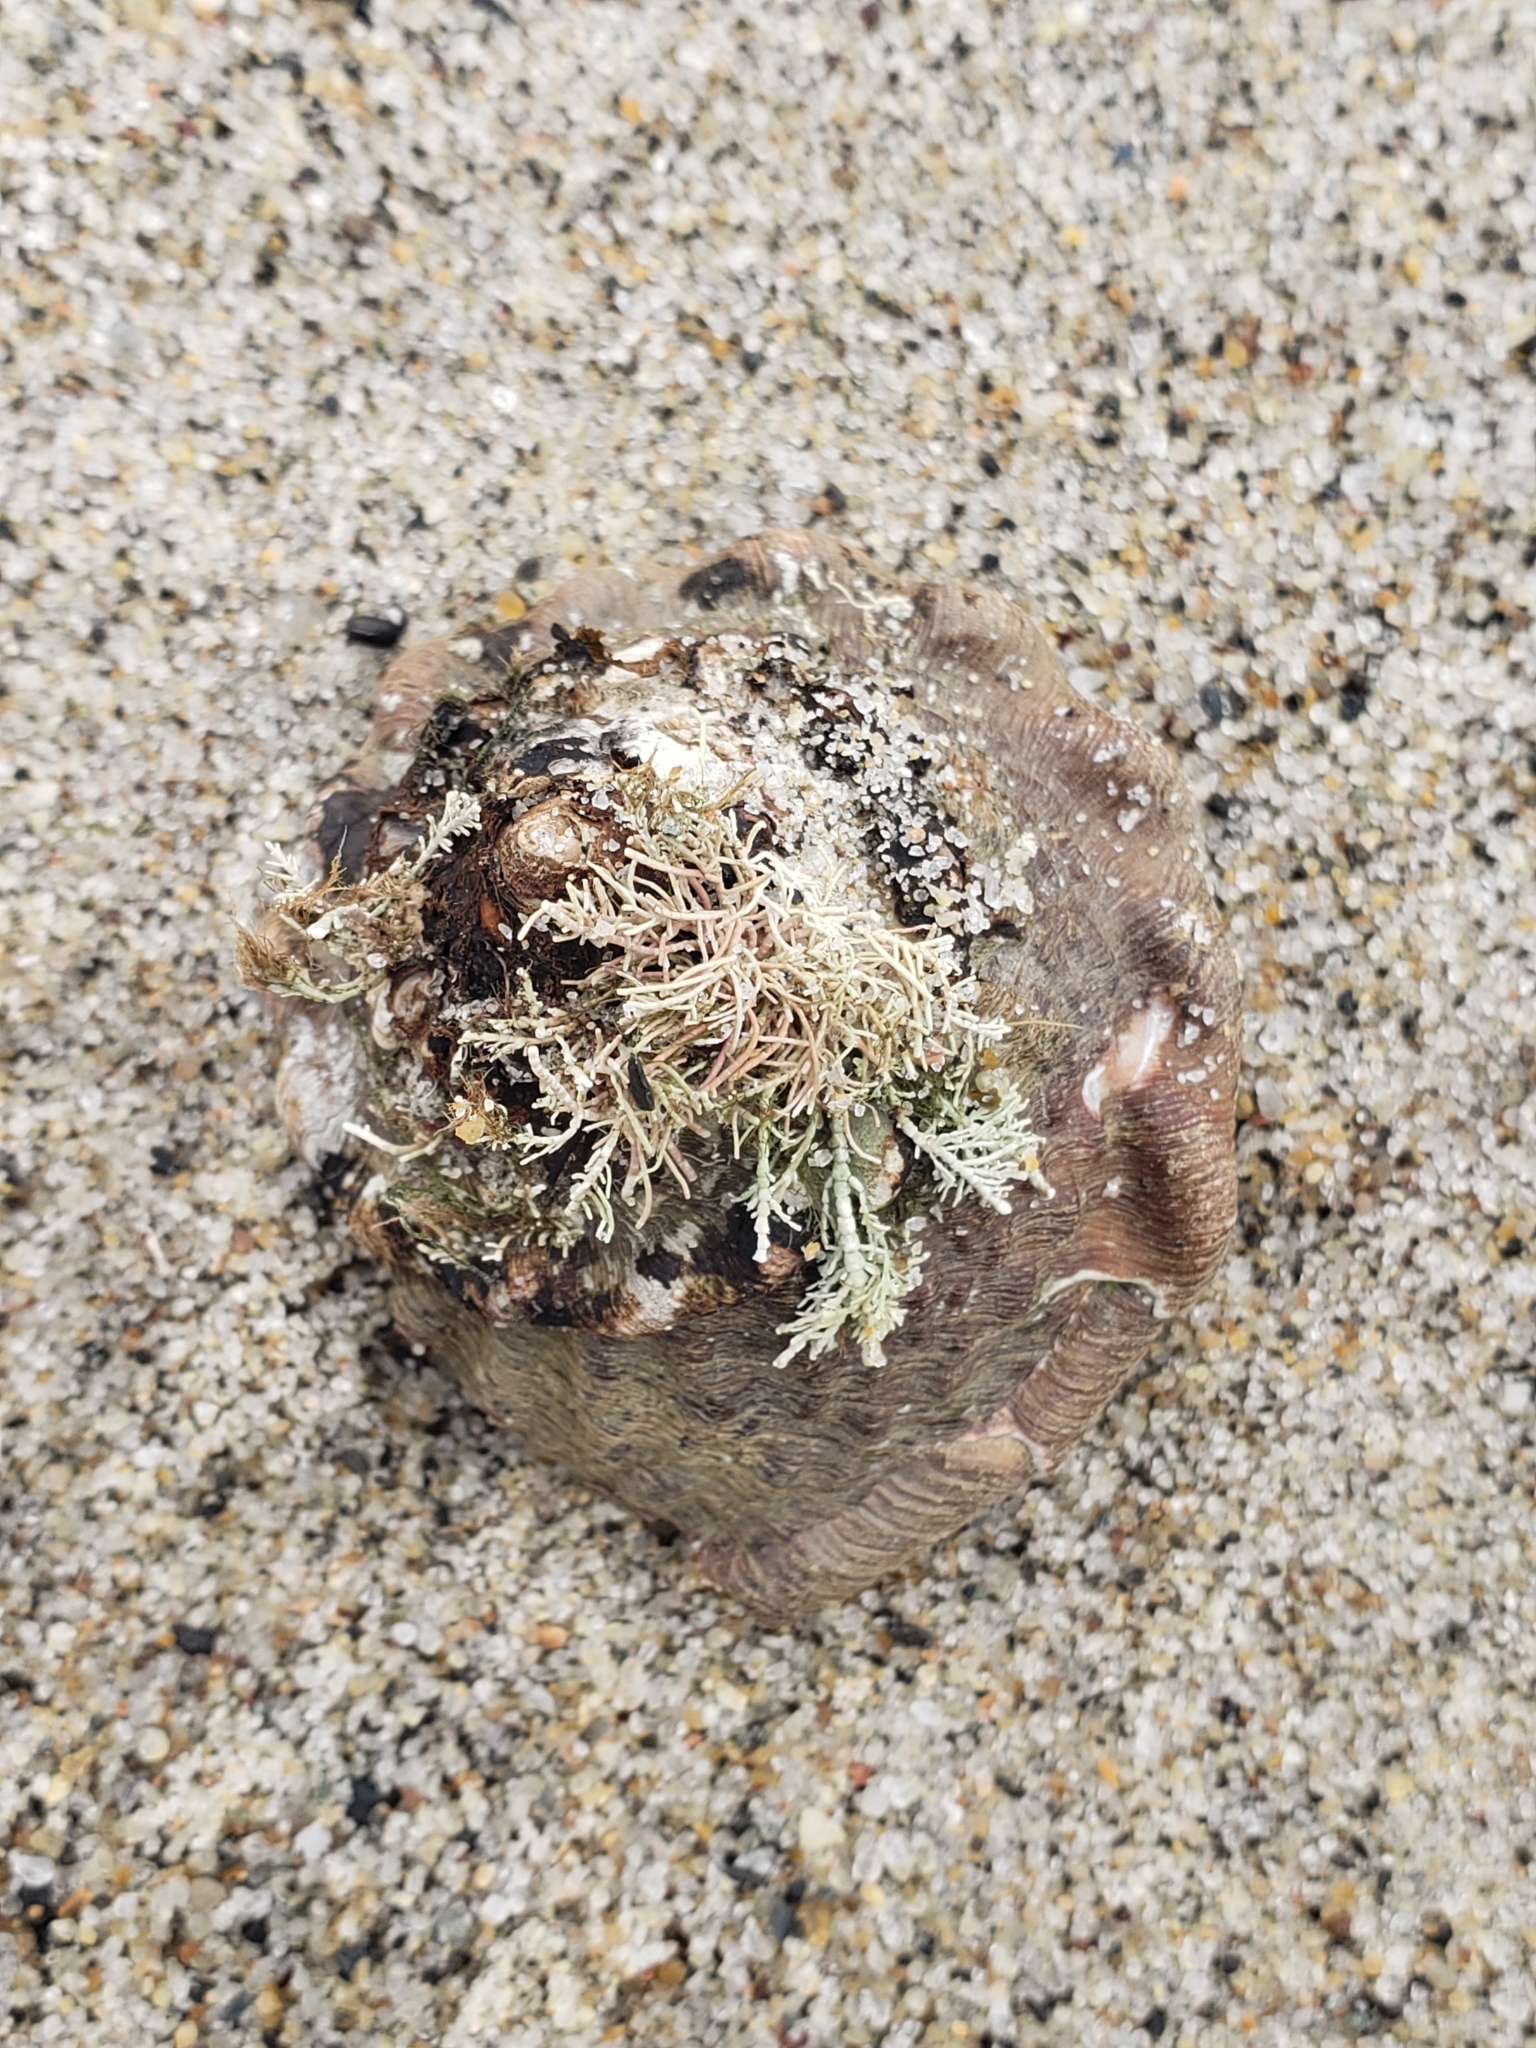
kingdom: Animalia
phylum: Mollusca
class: Gastropoda
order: Trochida
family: Turbinidae
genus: Megastraea
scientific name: Megastraea undosa
